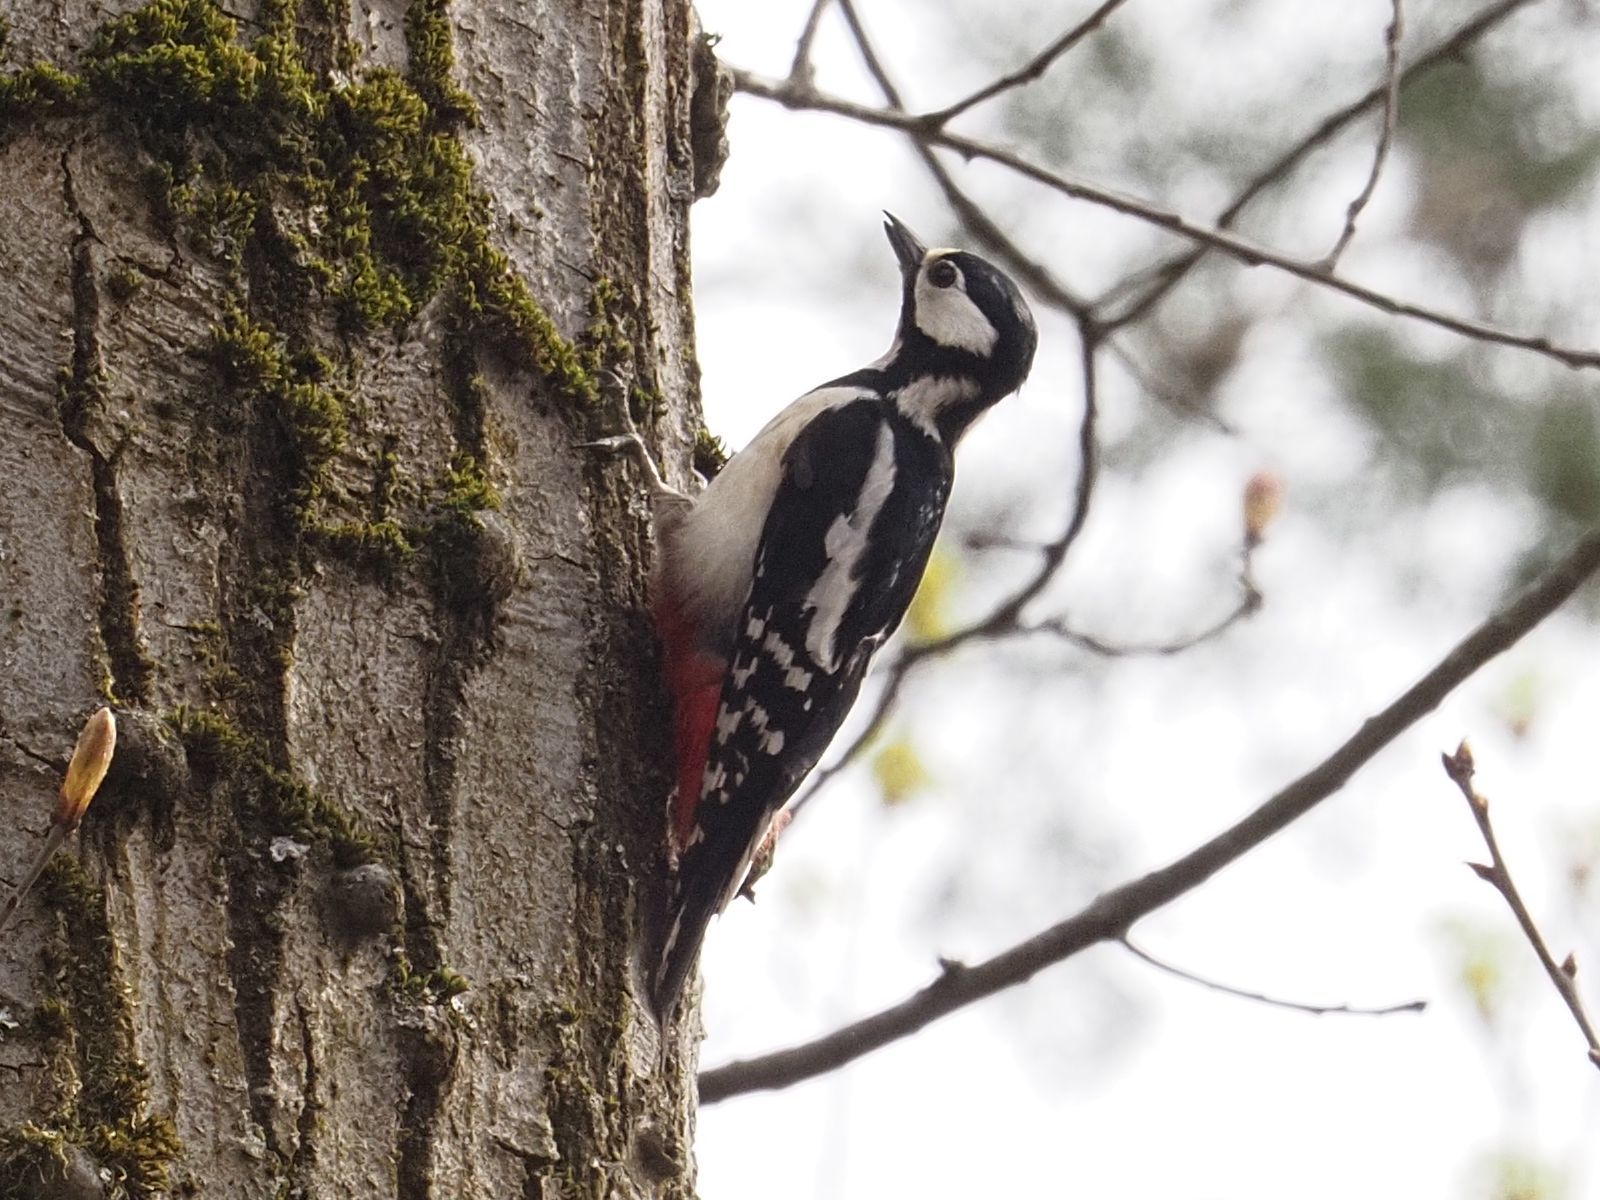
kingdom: Animalia
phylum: Chordata
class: Aves
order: Piciformes
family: Picidae
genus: Dendrocopos
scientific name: Dendrocopos major
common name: Great spotted woodpecker
